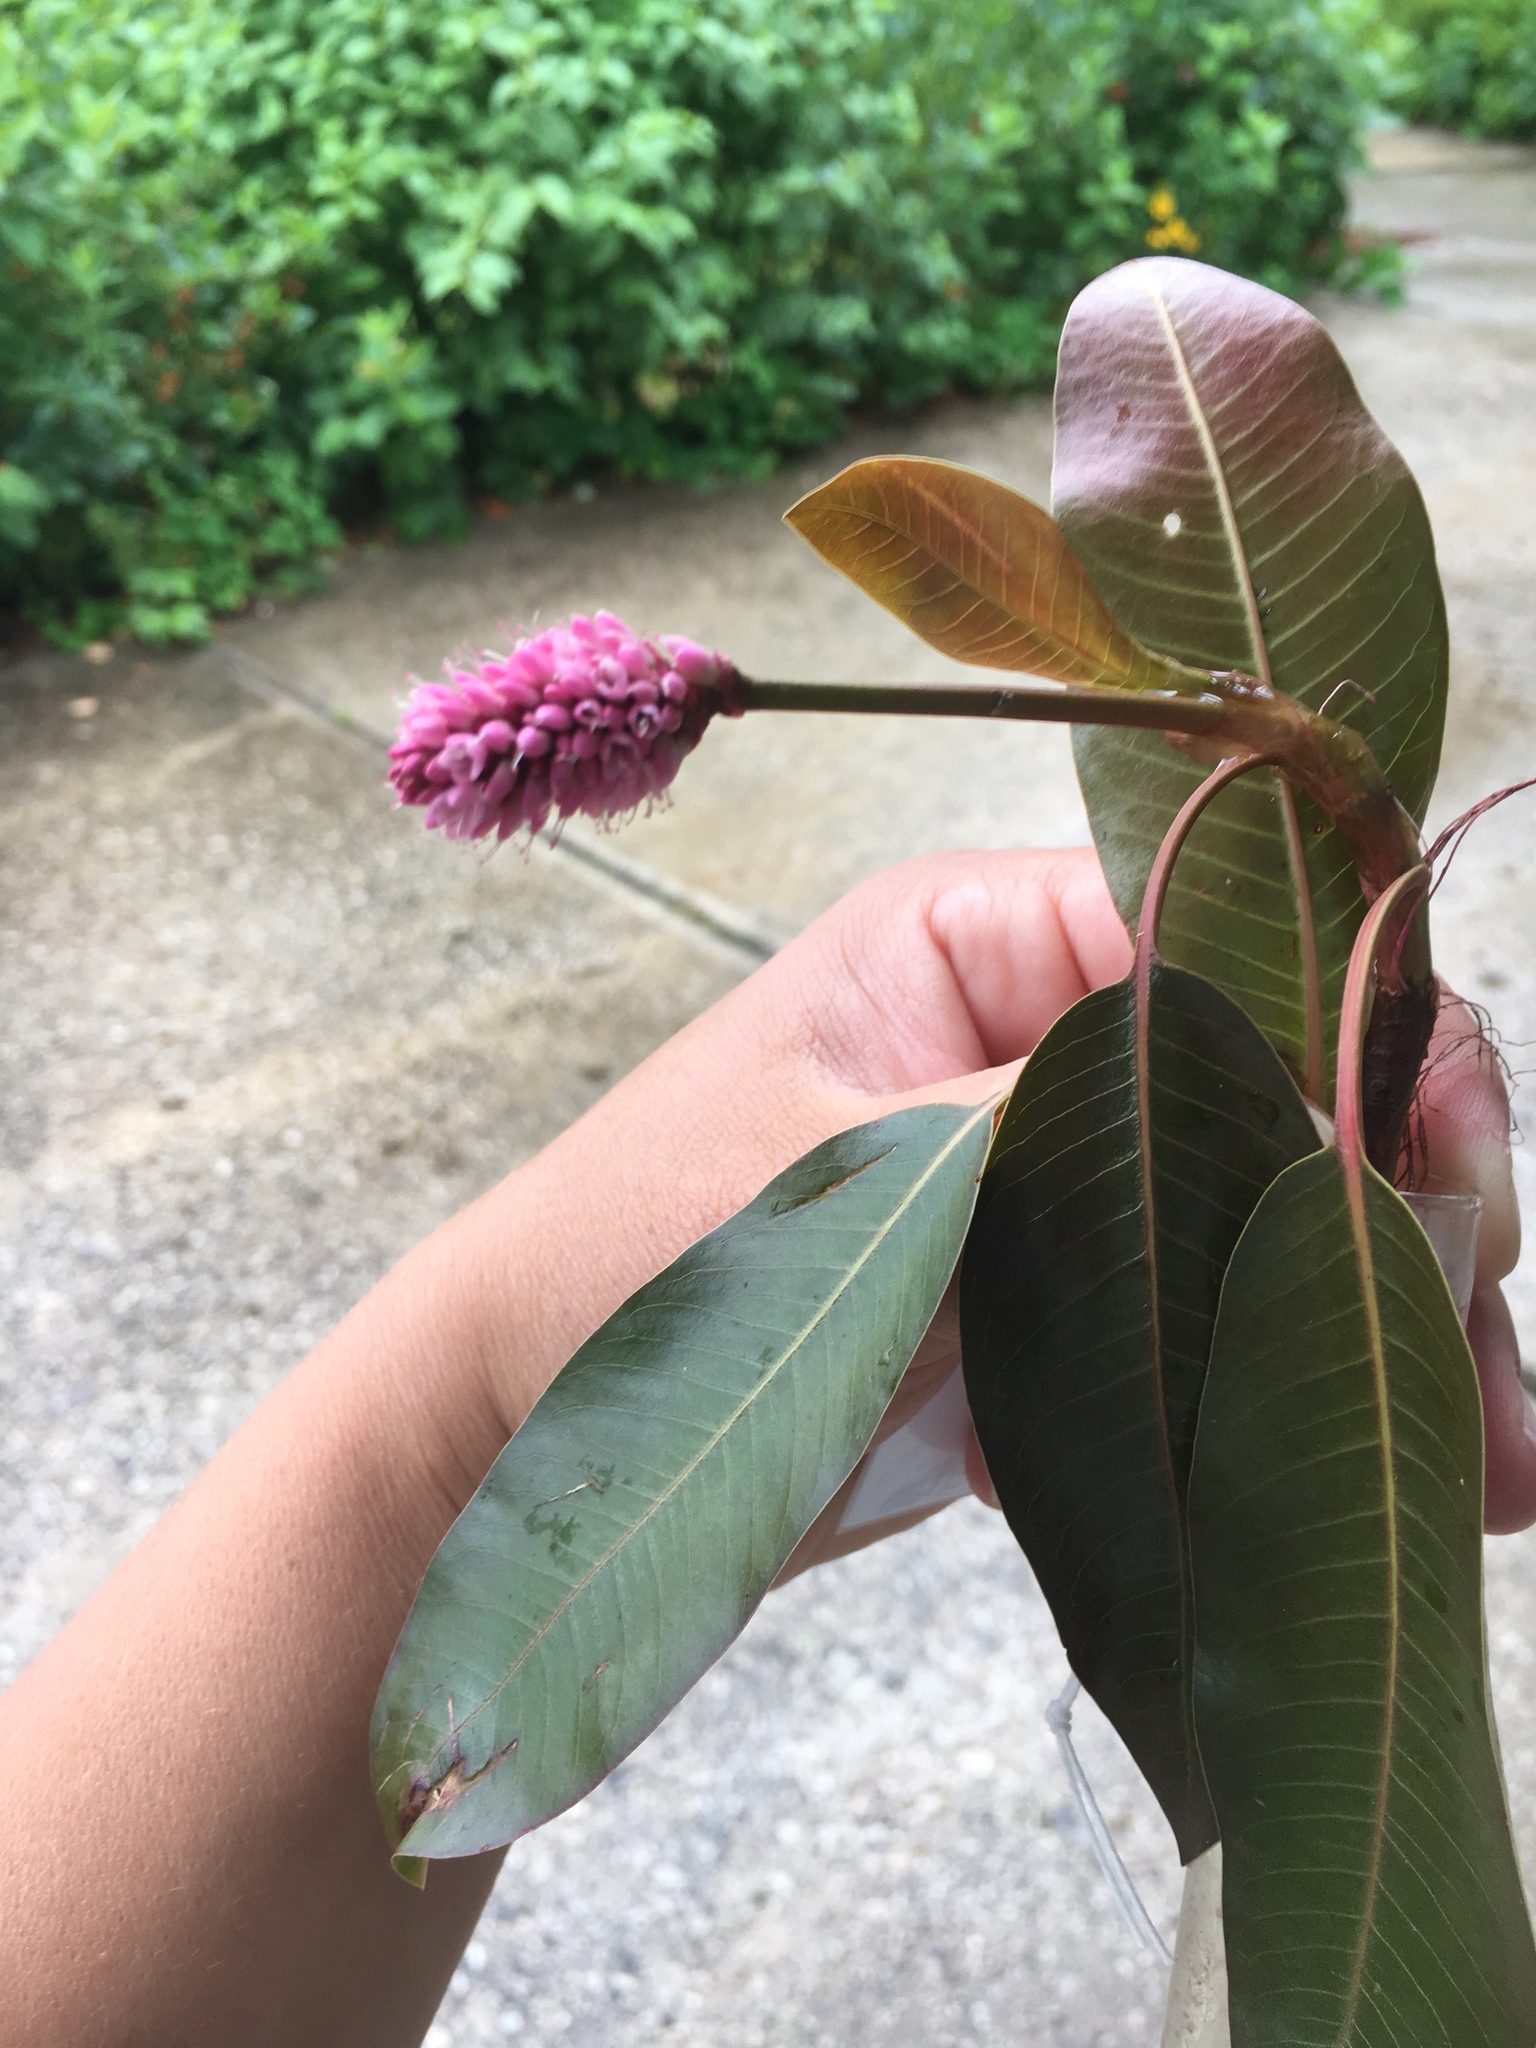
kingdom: Plantae
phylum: Tracheophyta
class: Magnoliopsida
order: Caryophyllales
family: Polygonaceae
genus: Persicaria
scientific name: Persicaria amphibia
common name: Amphibious bistort
